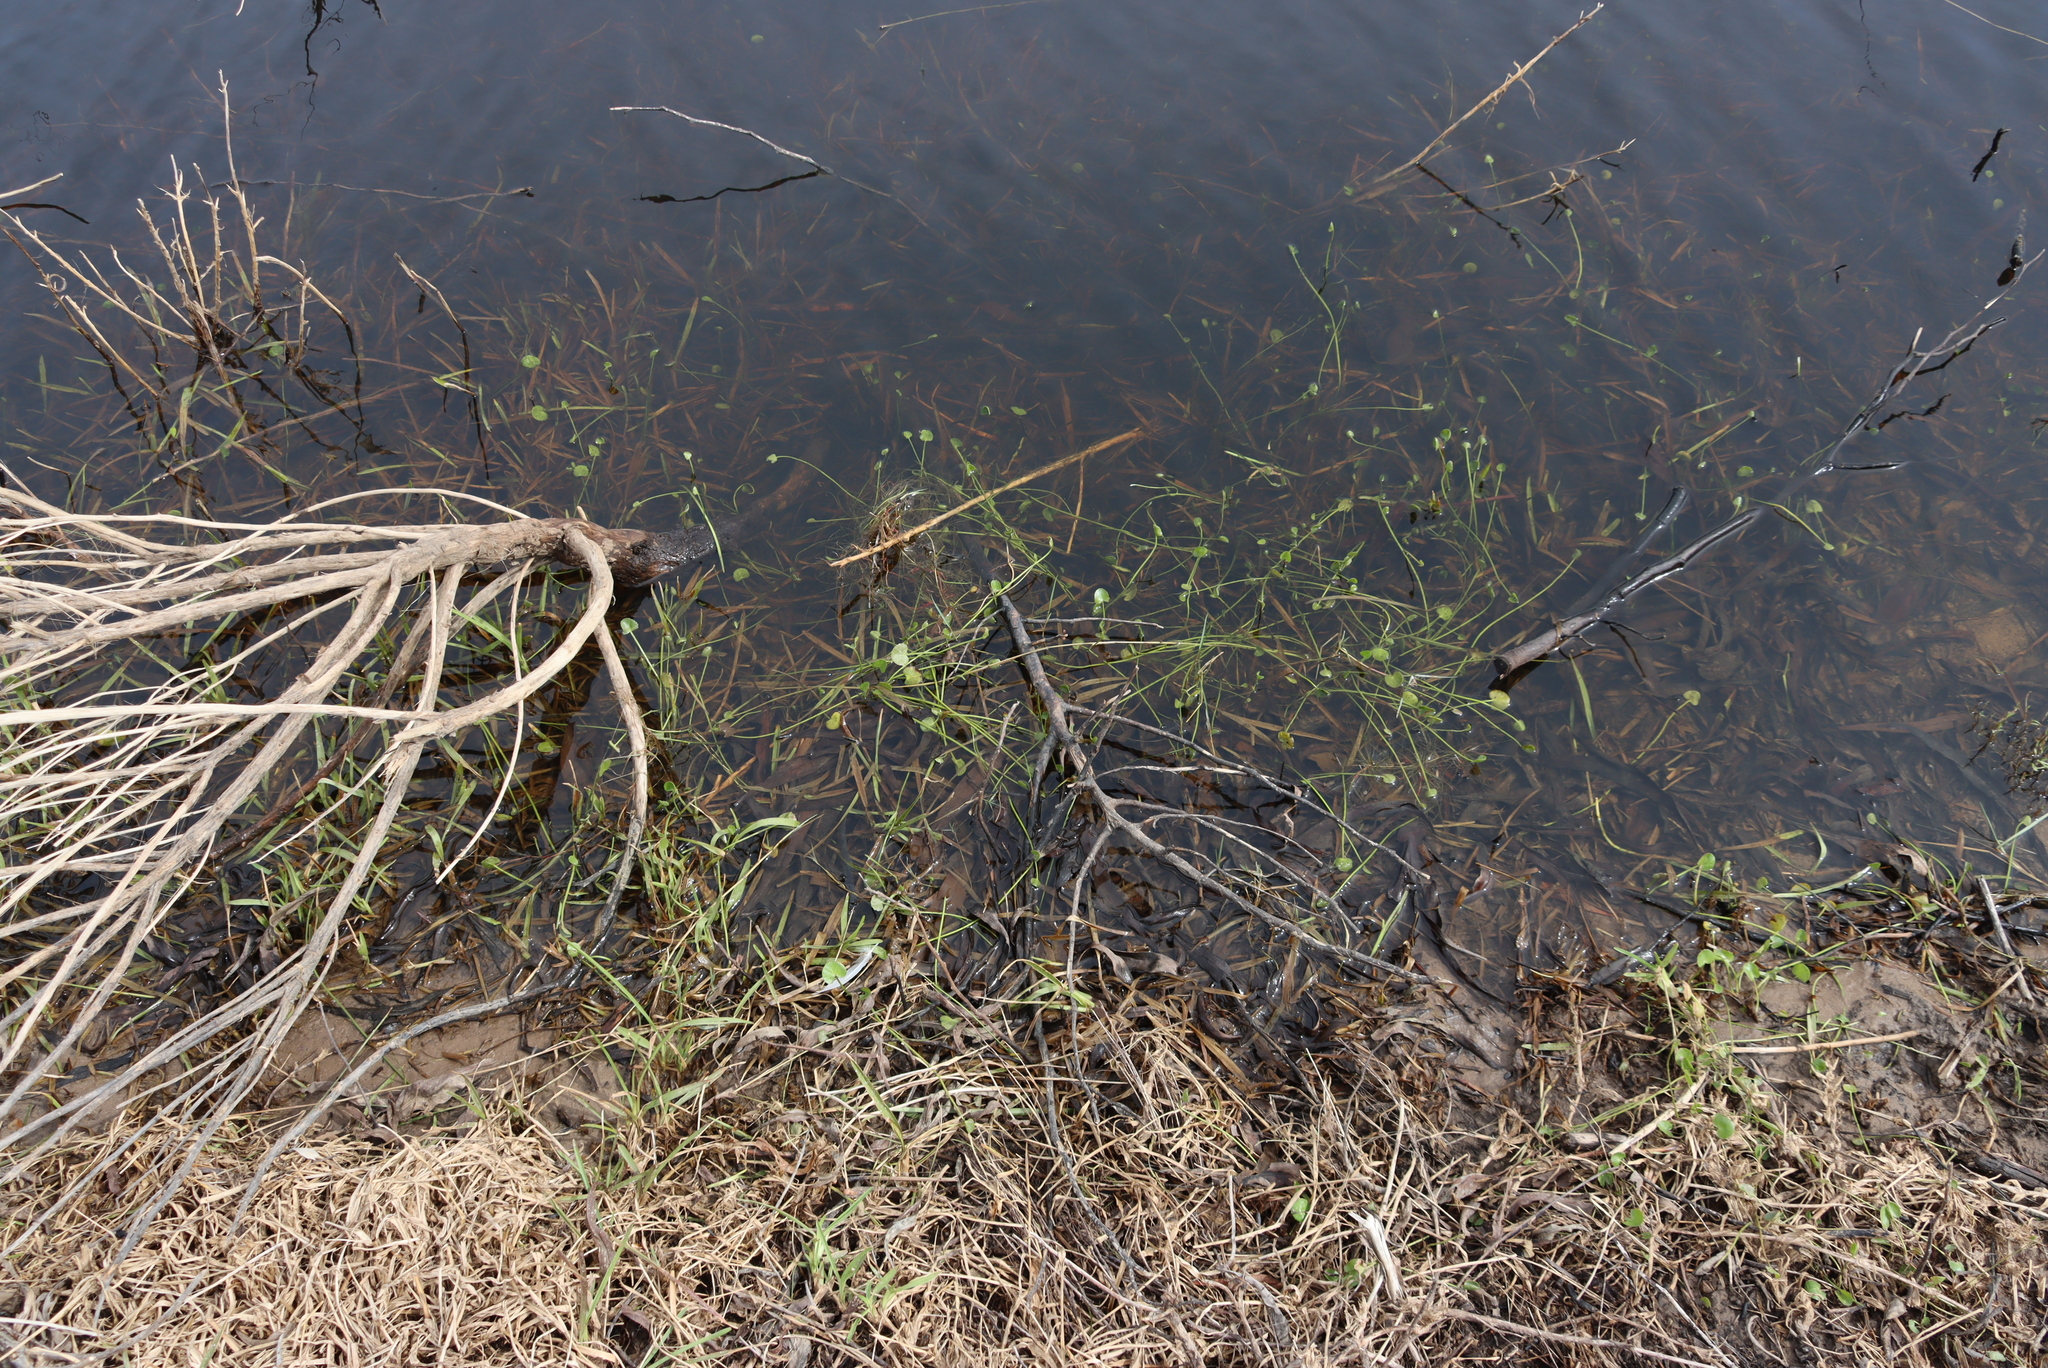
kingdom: Plantae
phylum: Tracheophyta
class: Magnoliopsida
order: Apiales
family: Apiaceae
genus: Centella
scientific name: Centella asiatica
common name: Spadeleaf
